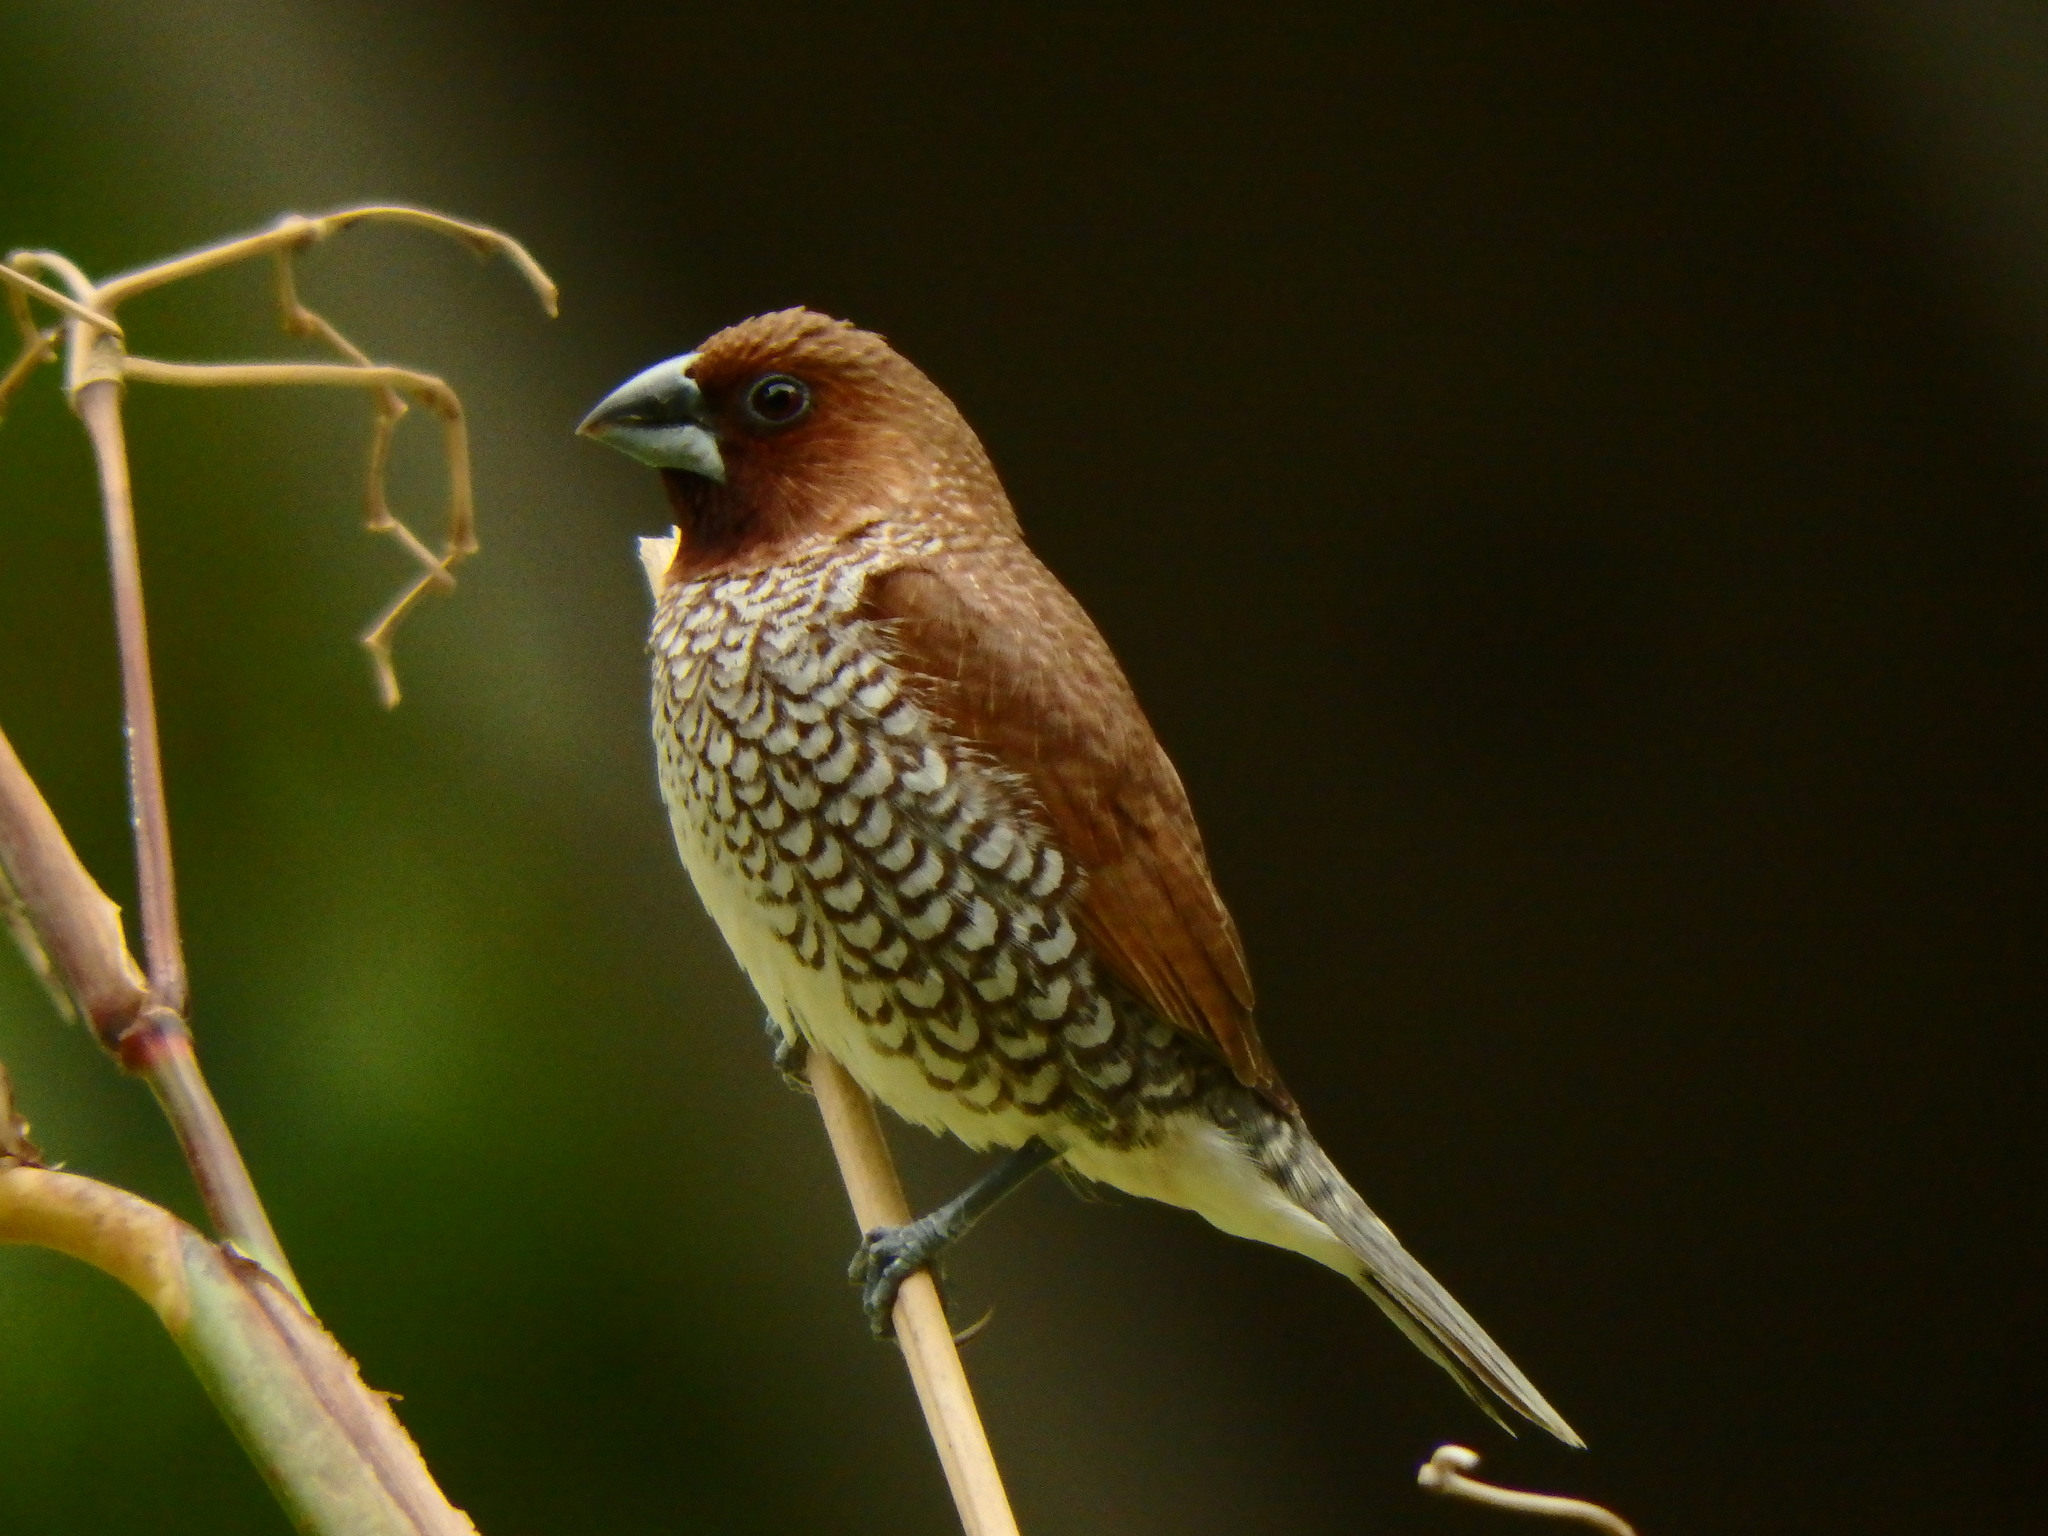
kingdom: Animalia
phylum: Chordata
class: Aves
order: Passeriformes
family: Estrildidae
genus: Lonchura
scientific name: Lonchura punctulata
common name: Scaly-breasted munia
